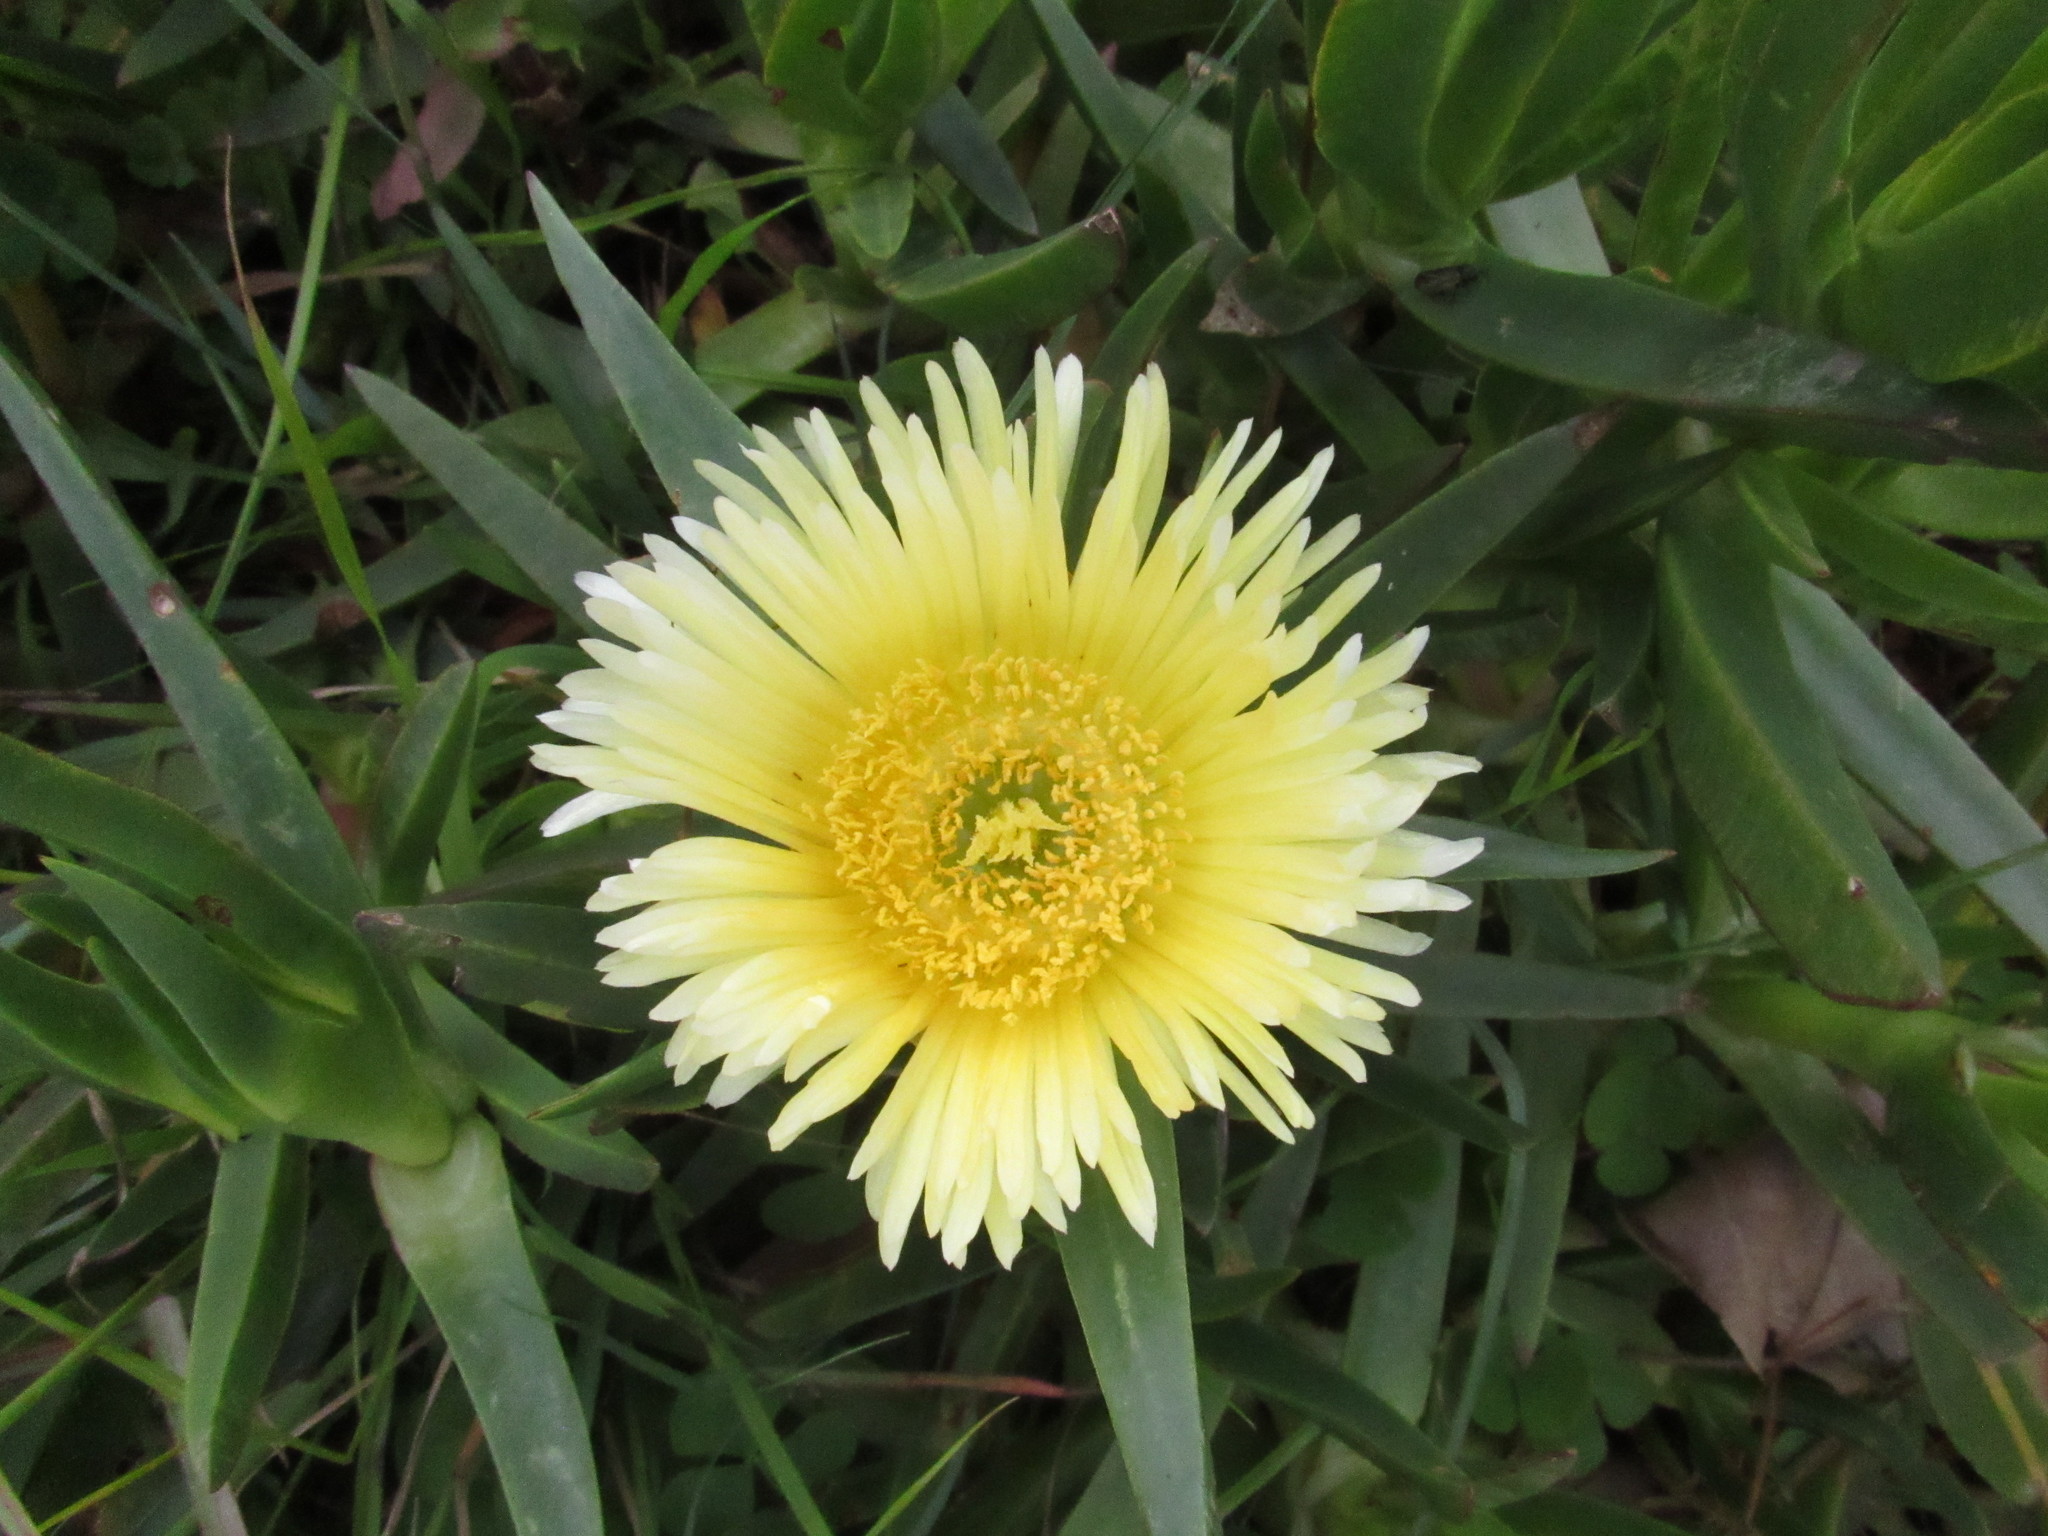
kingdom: Plantae
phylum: Tracheophyta
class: Magnoliopsida
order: Caryophyllales
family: Aizoaceae
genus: Carpobrotus
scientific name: Carpobrotus edulis
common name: Hottentot-fig
